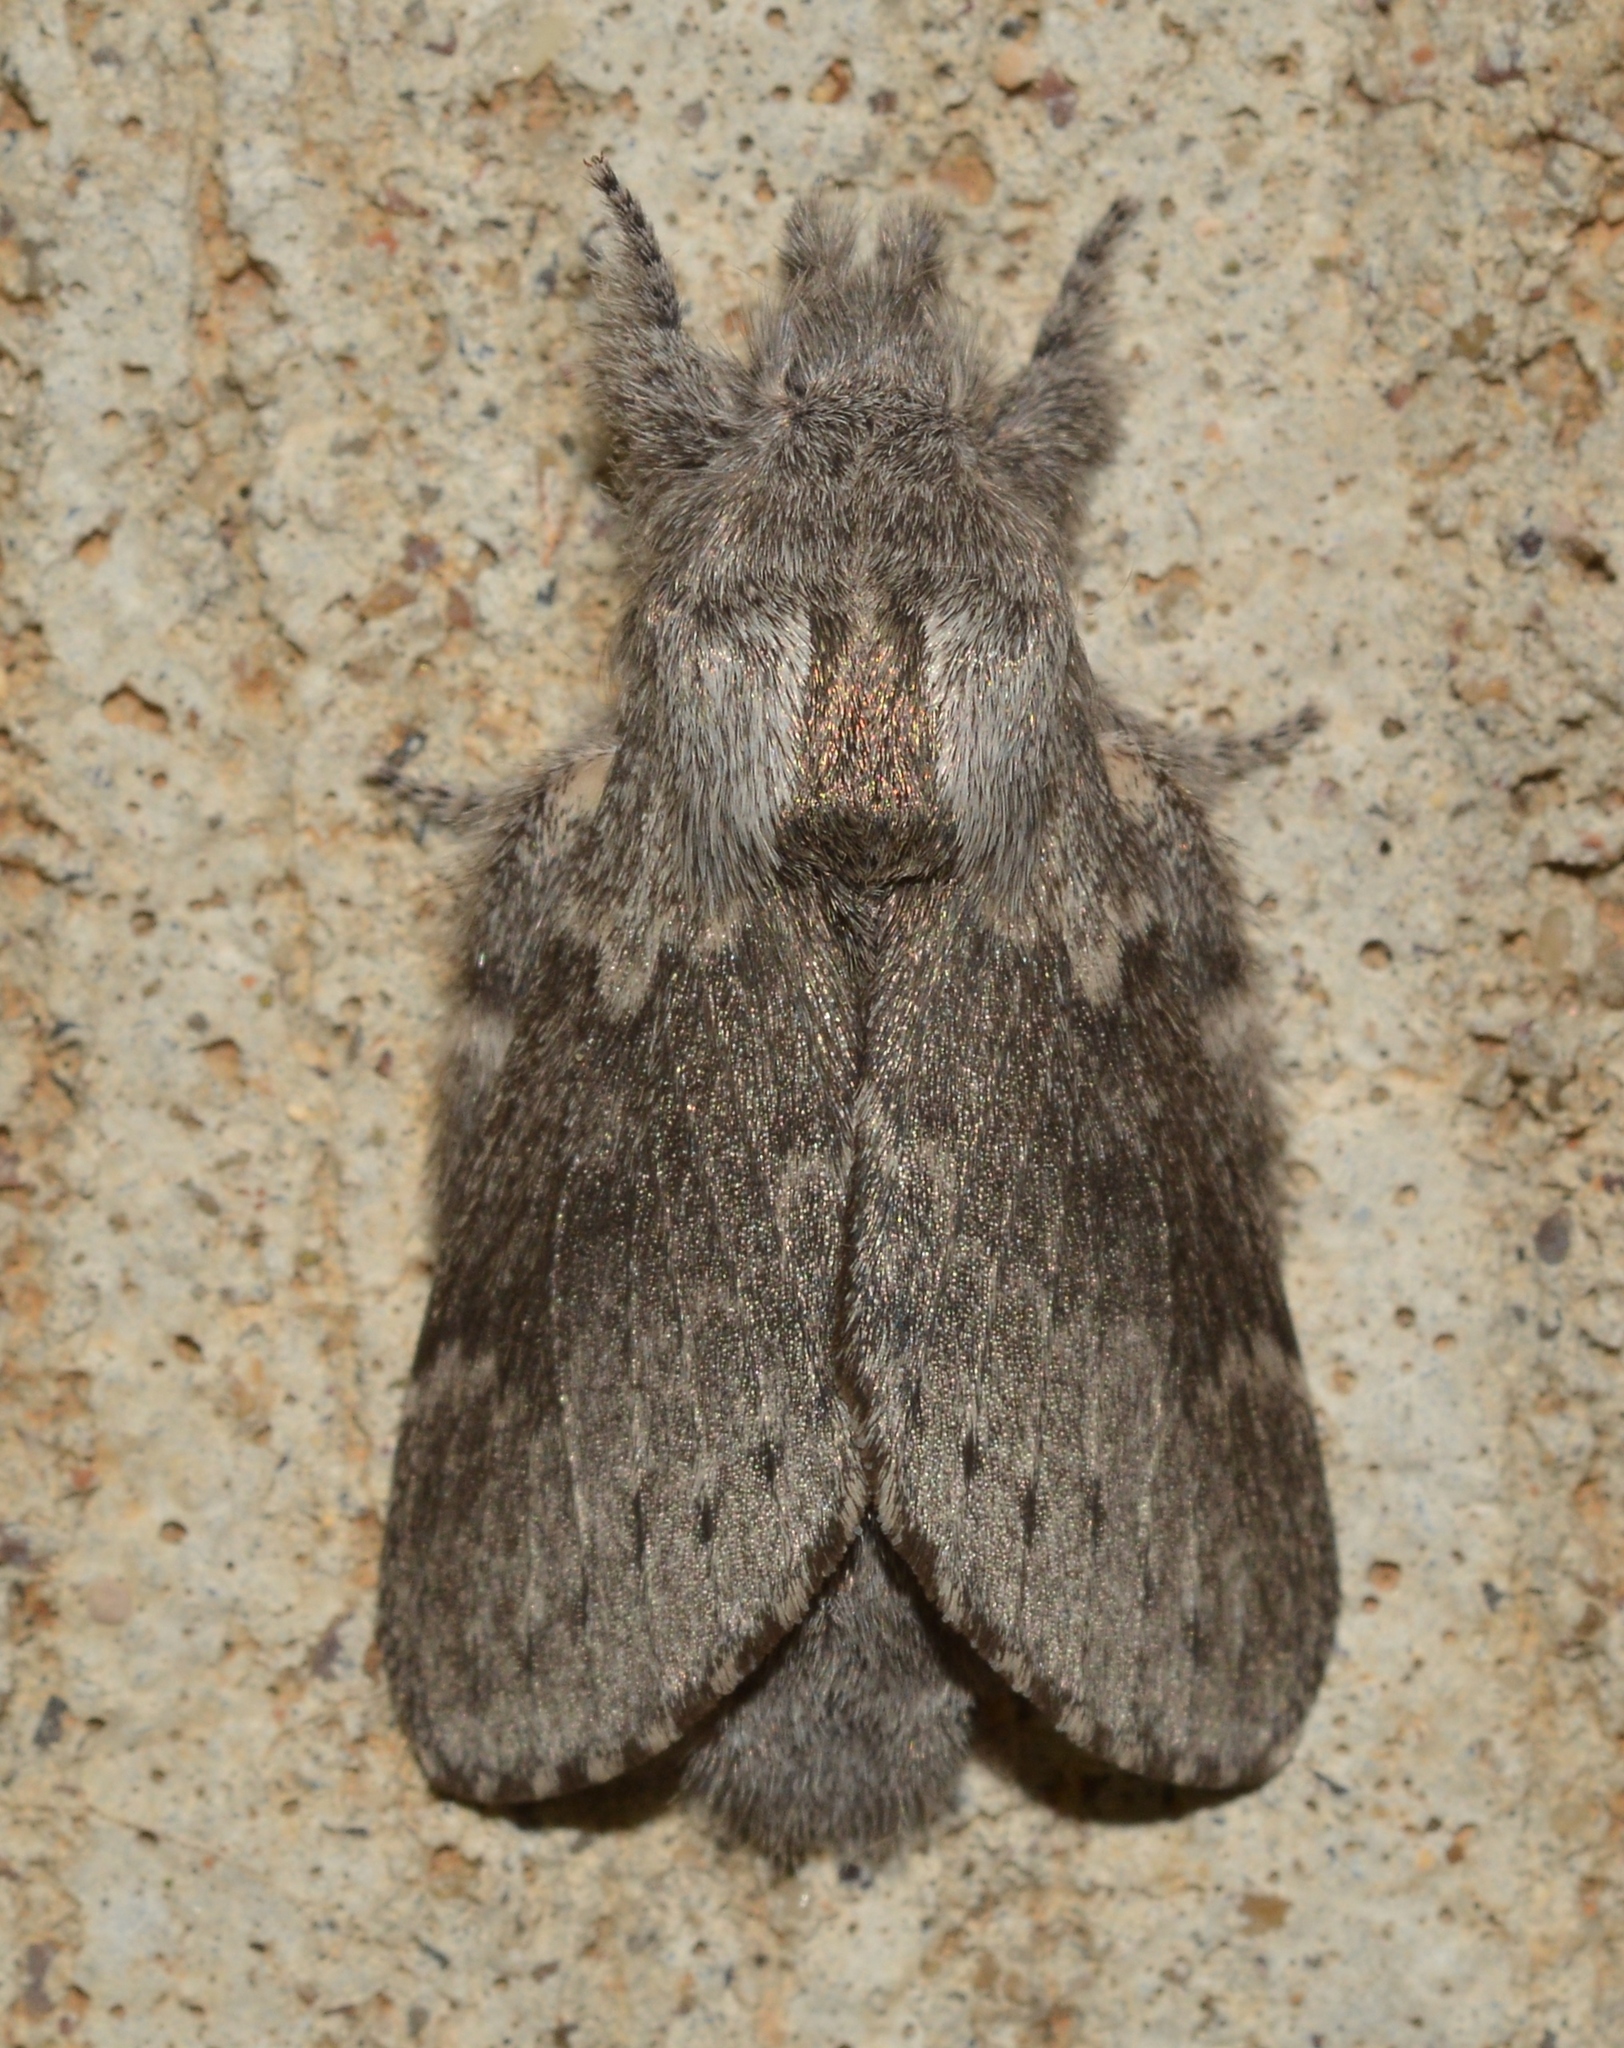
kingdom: Animalia
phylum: Arthropoda
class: Insecta
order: Lepidoptera
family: Lasiocampidae
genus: Heteropacha
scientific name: Heteropacha rileyana
